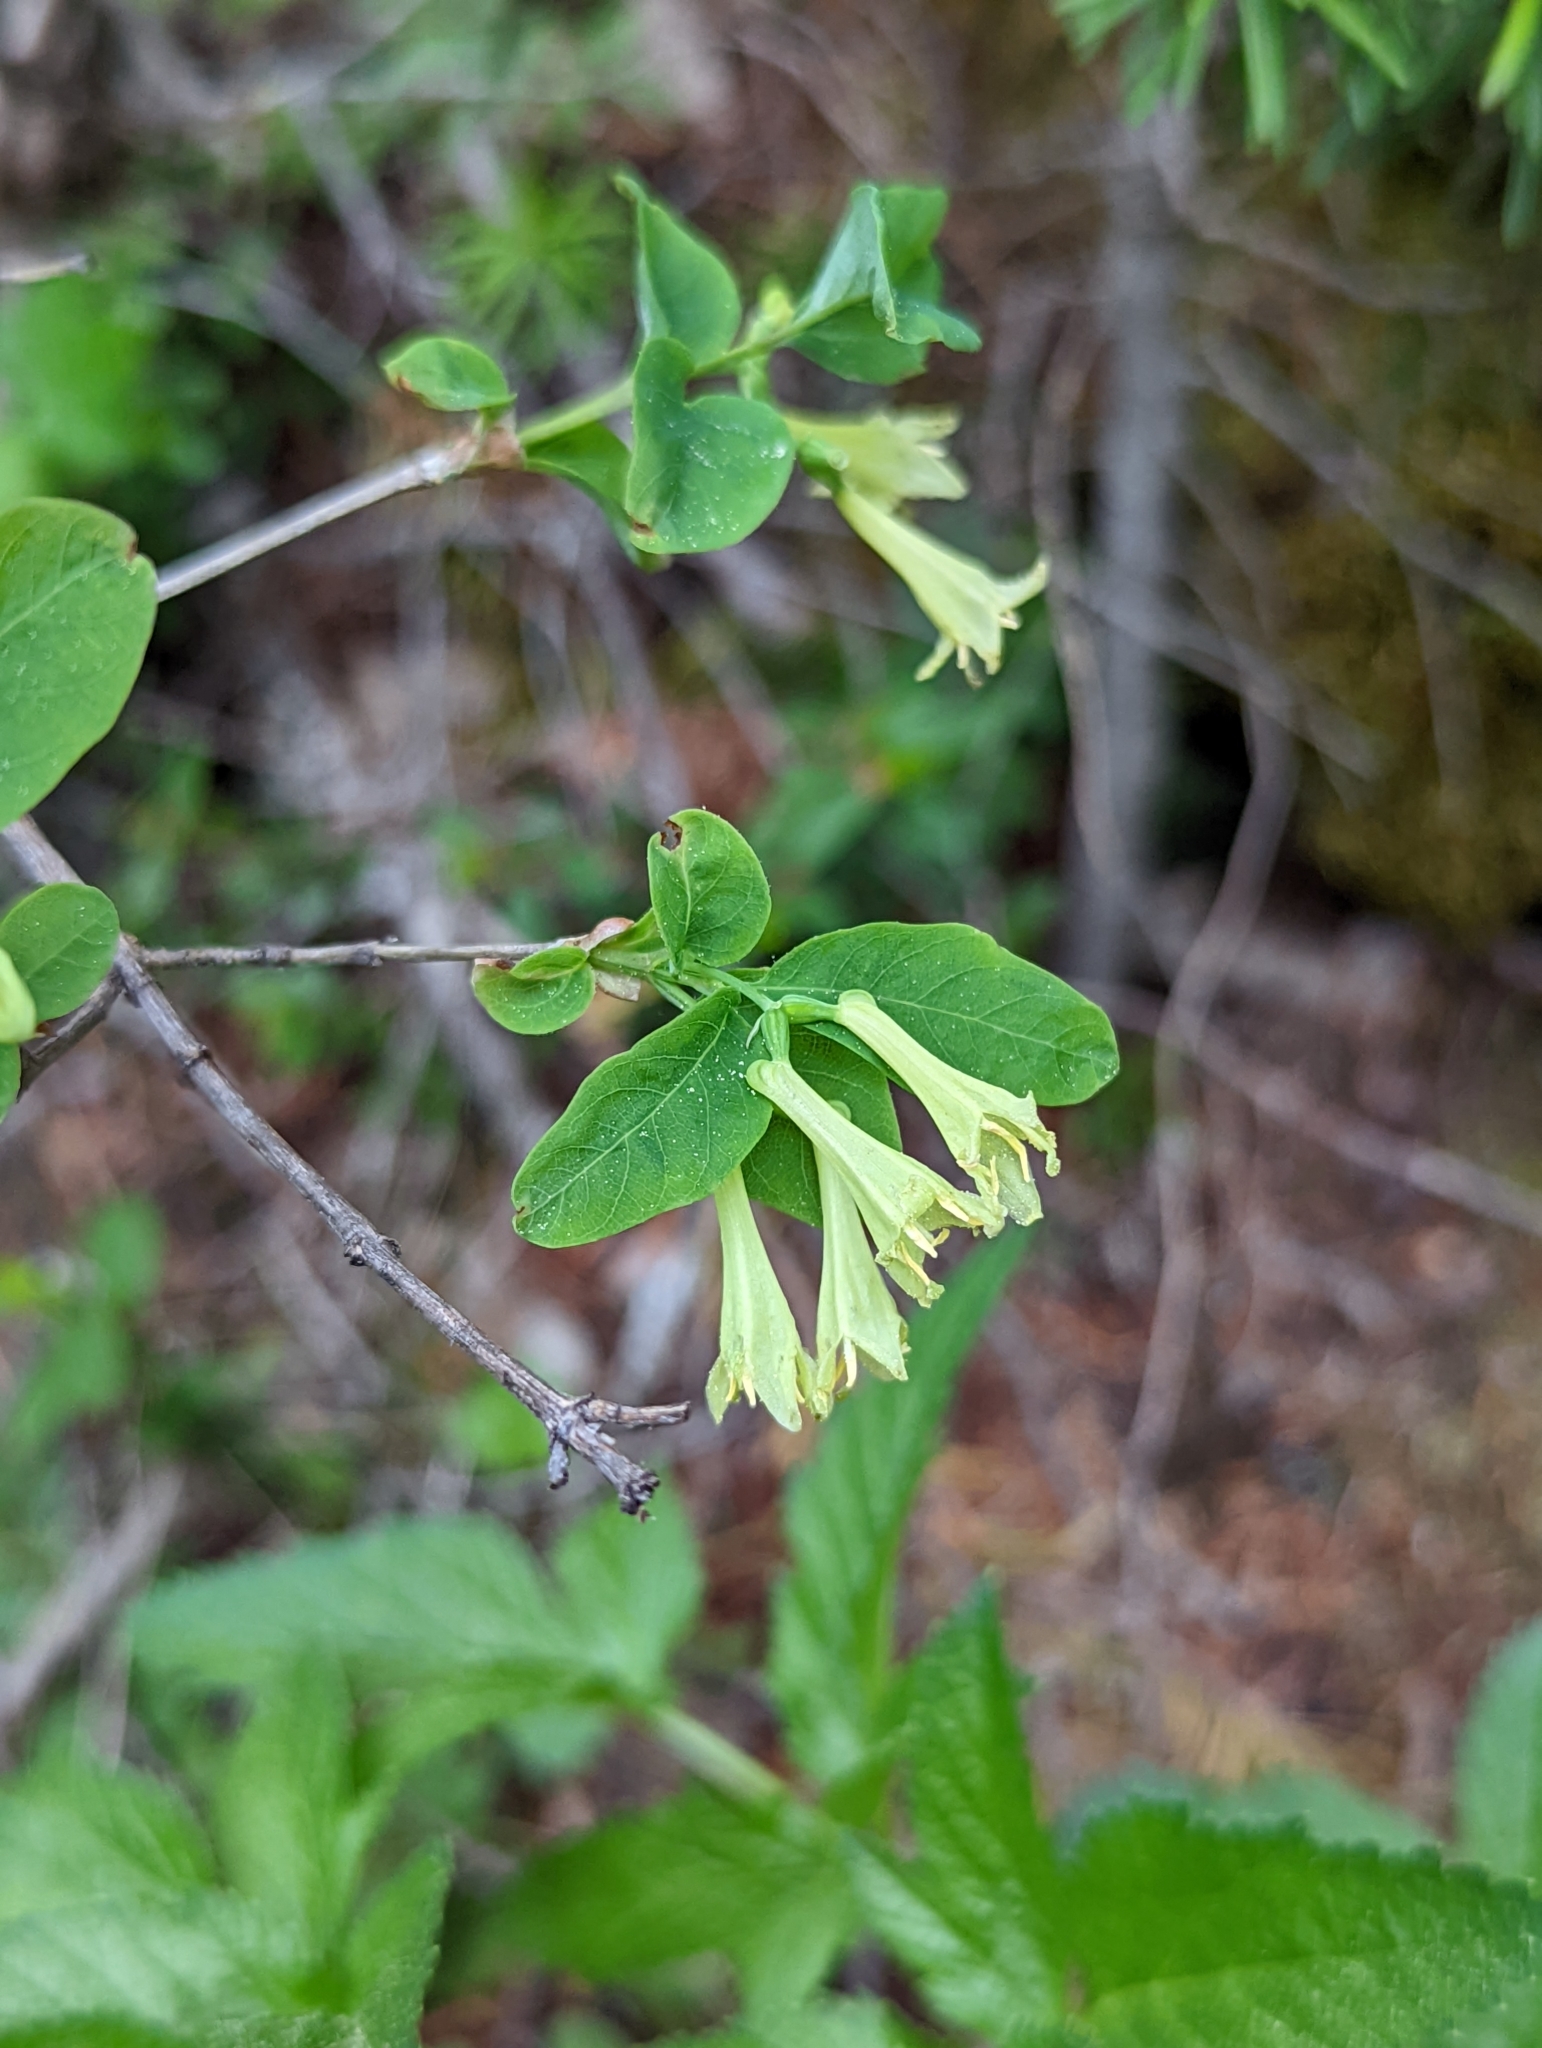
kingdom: Plantae
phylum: Tracheophyta
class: Magnoliopsida
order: Dipsacales
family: Caprifoliaceae
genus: Lonicera
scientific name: Lonicera utahensis
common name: Utah honeysuckle
